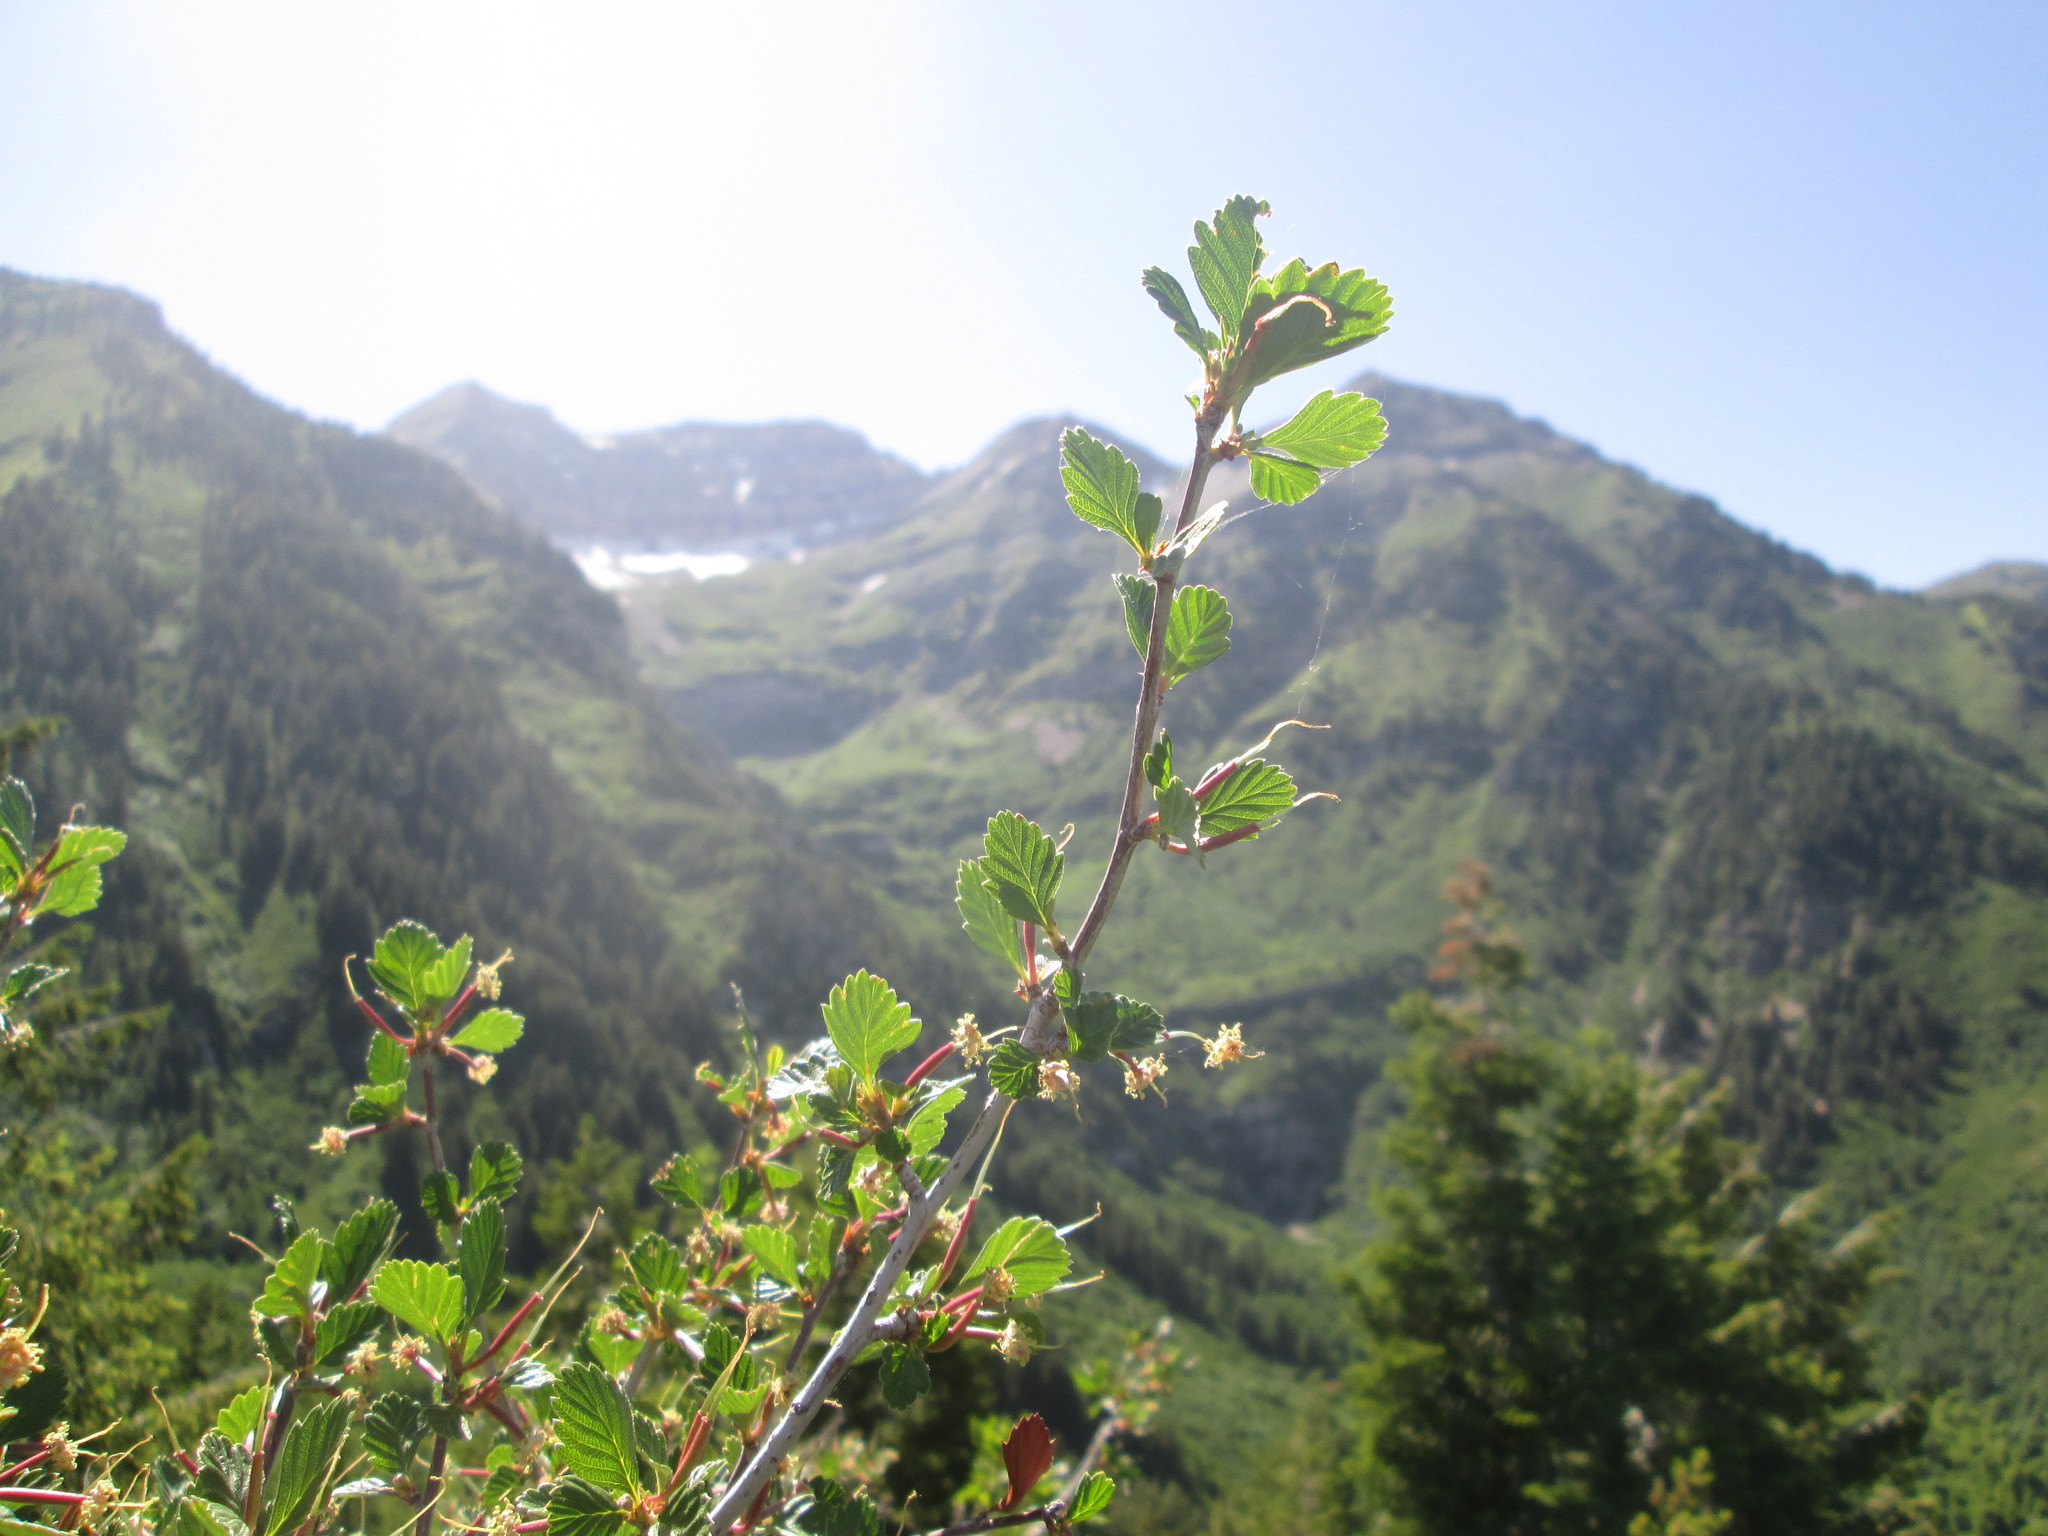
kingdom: Plantae
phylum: Tracheophyta
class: Magnoliopsida
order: Rosales
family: Rosaceae
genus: Cercocarpus
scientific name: Cercocarpus montanus
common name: Alder-leaf cercocarpus
